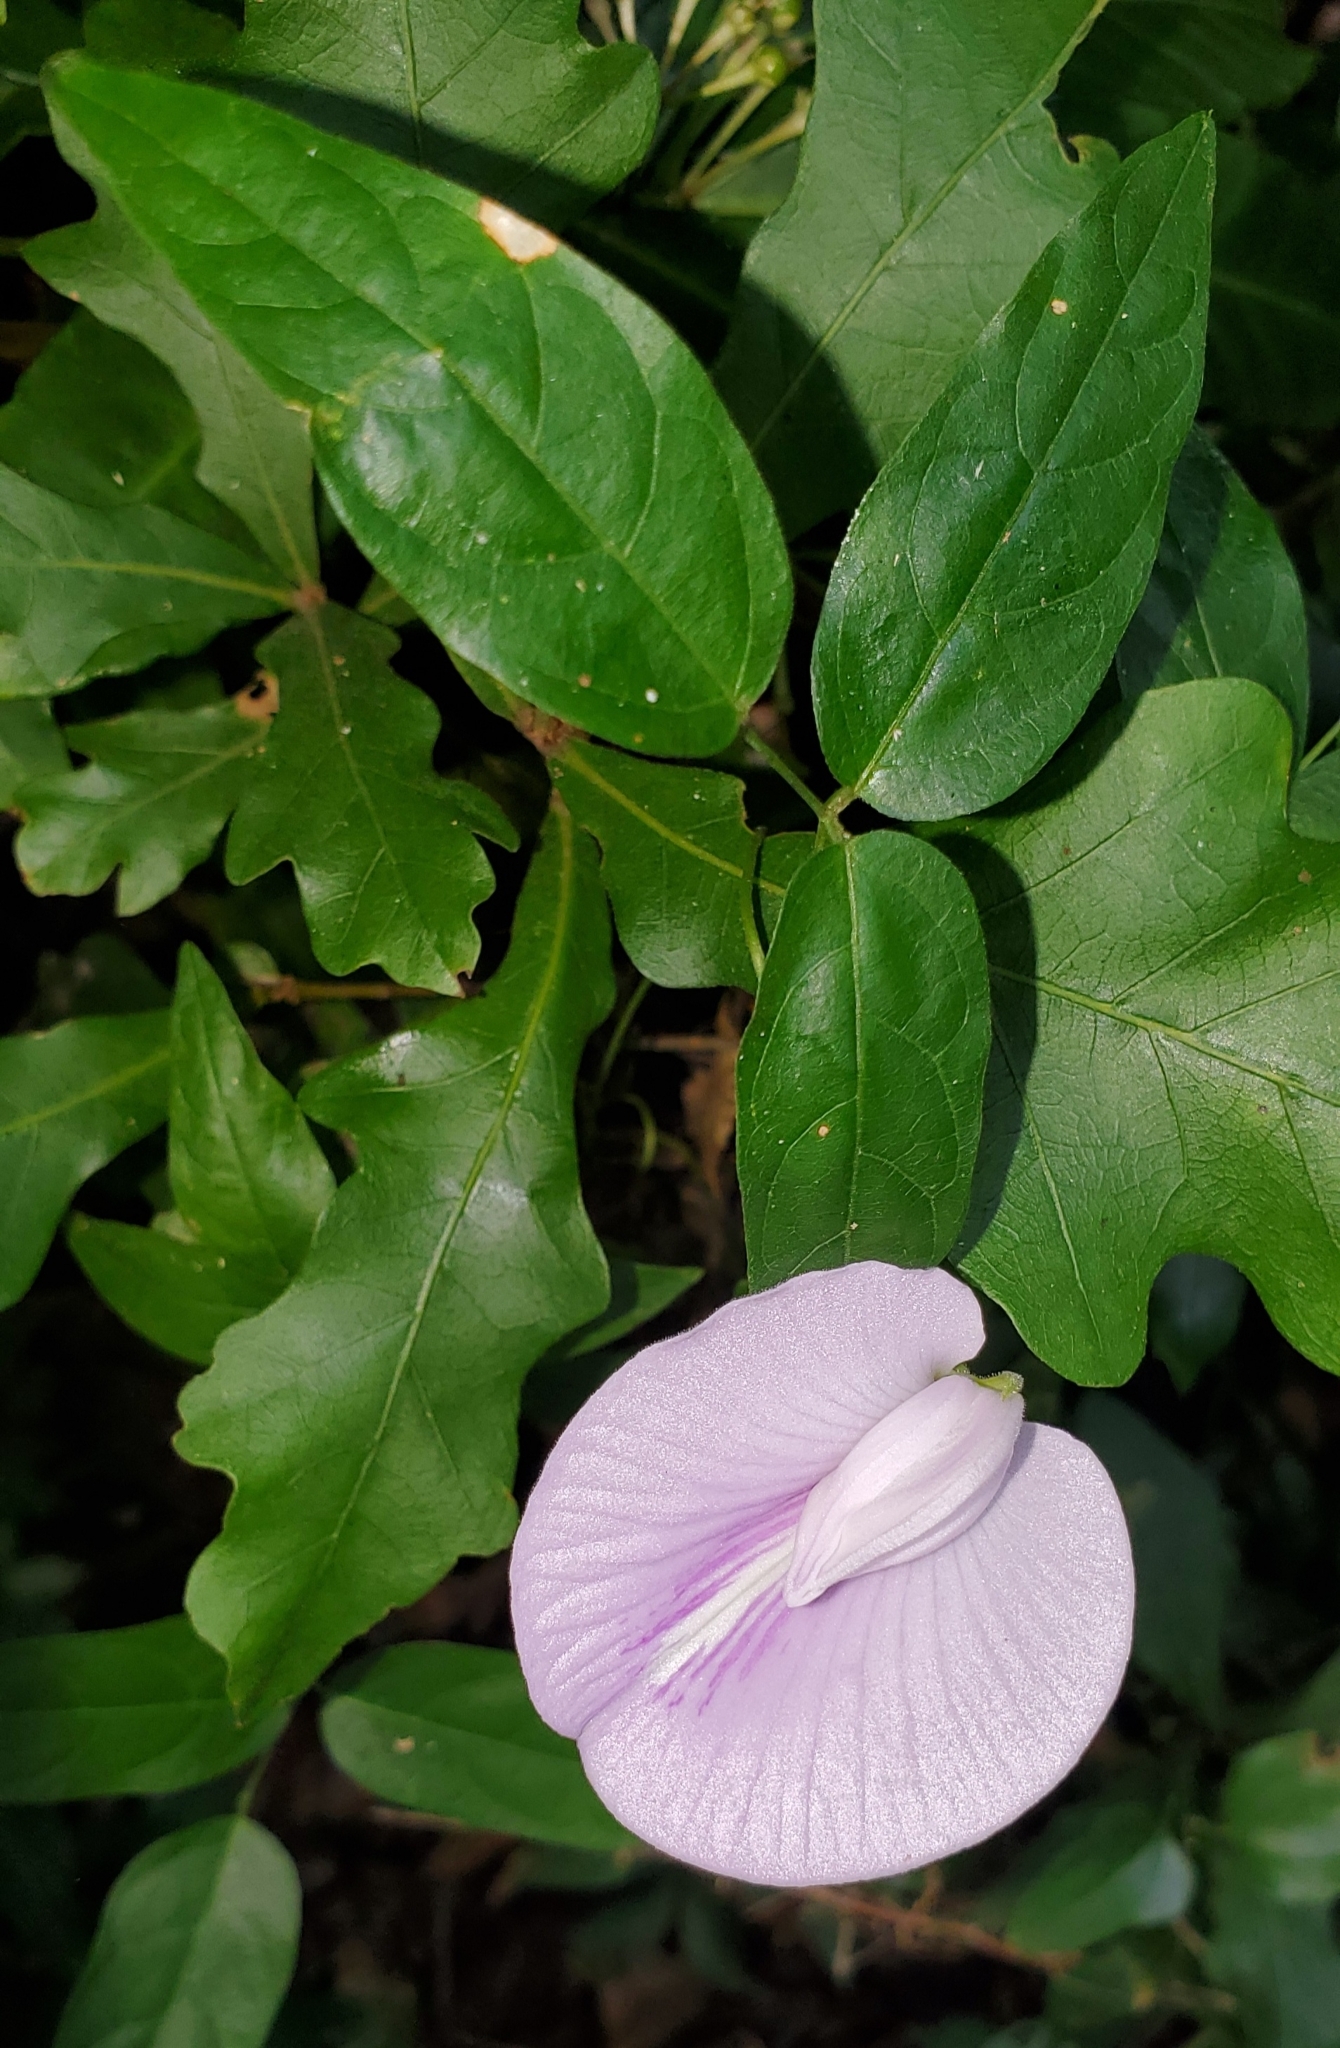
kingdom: Plantae
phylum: Tracheophyta
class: Magnoliopsida
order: Fabales
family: Fabaceae
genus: Centrosema
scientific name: Centrosema virginianum
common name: Butterfly-pea
